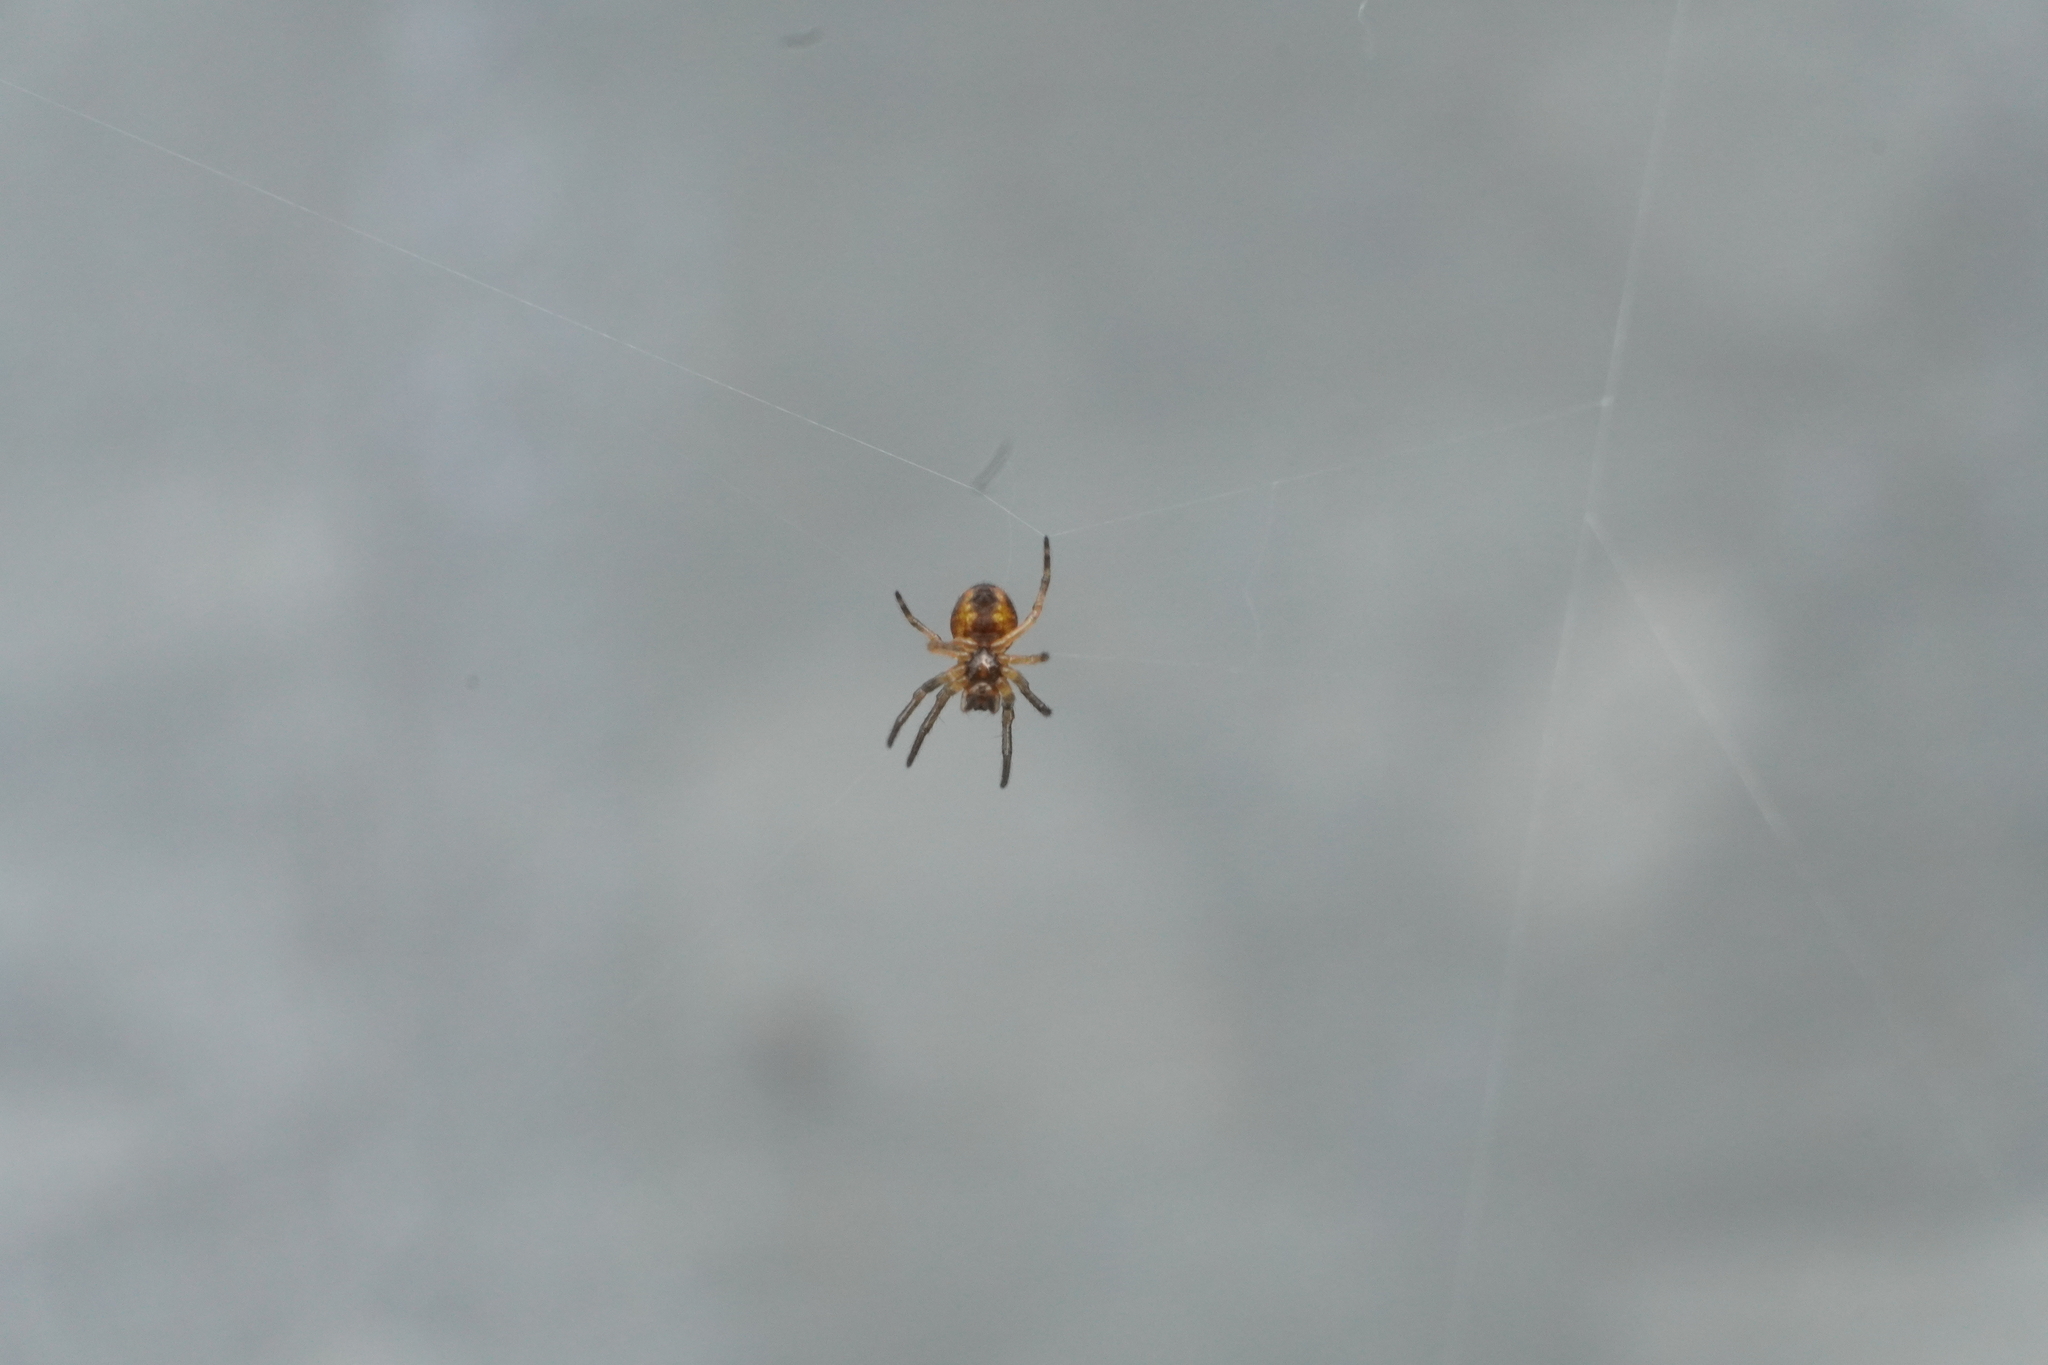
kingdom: Animalia
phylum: Arthropoda
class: Arachnida
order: Araneae
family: Araneidae
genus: Larinioides
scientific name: Larinioides cornutus
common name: Furrow orbweaver
